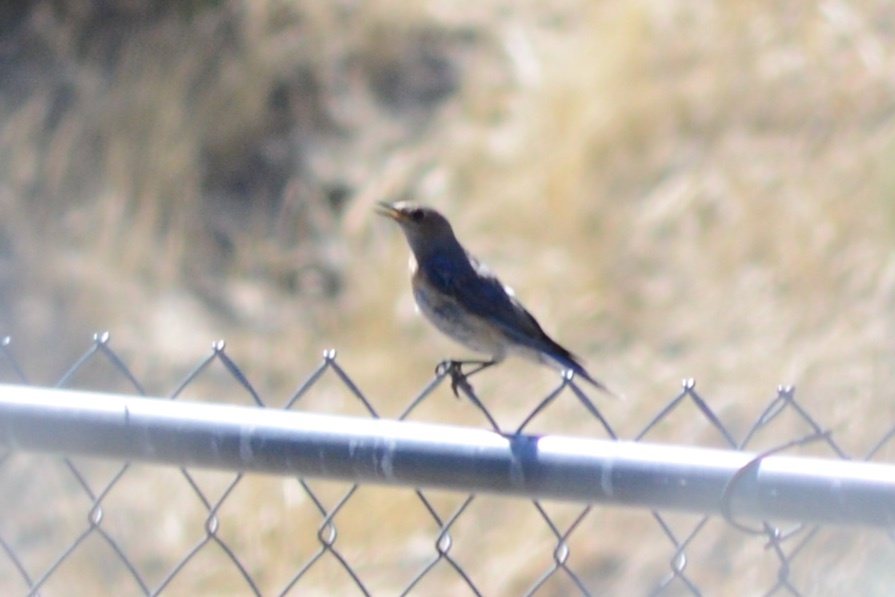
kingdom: Animalia
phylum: Chordata
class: Aves
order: Passeriformes
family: Turdidae
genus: Sialia
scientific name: Sialia mexicana
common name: Western bluebird
